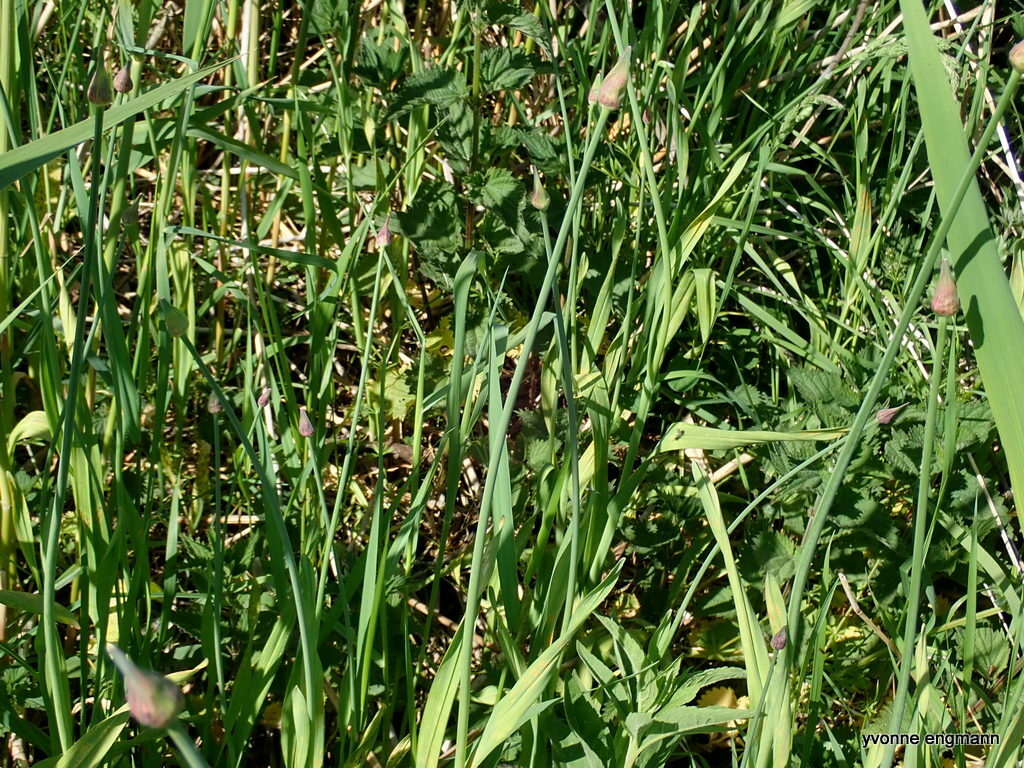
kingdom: Plantae
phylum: Tracheophyta
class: Liliopsida
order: Asparagales
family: Amaryllidaceae
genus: Allium
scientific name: Allium scorodoprasum
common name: Sand leek
